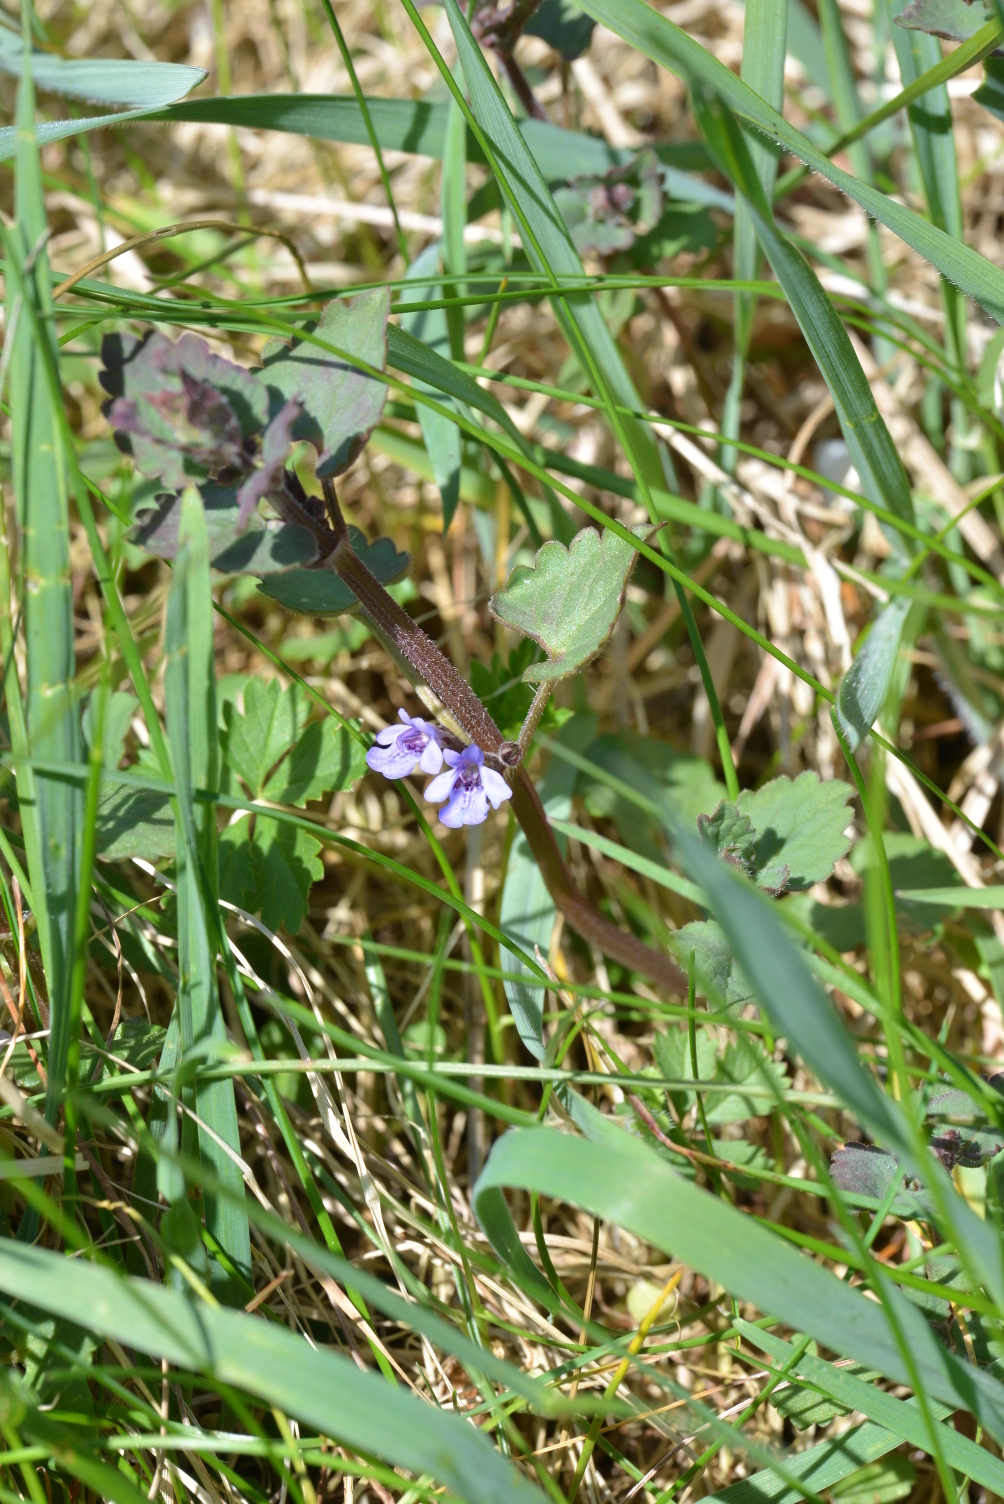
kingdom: Plantae
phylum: Tracheophyta
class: Magnoliopsida
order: Lamiales
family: Lamiaceae
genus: Glechoma
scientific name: Glechoma hederacea
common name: Ground ivy
